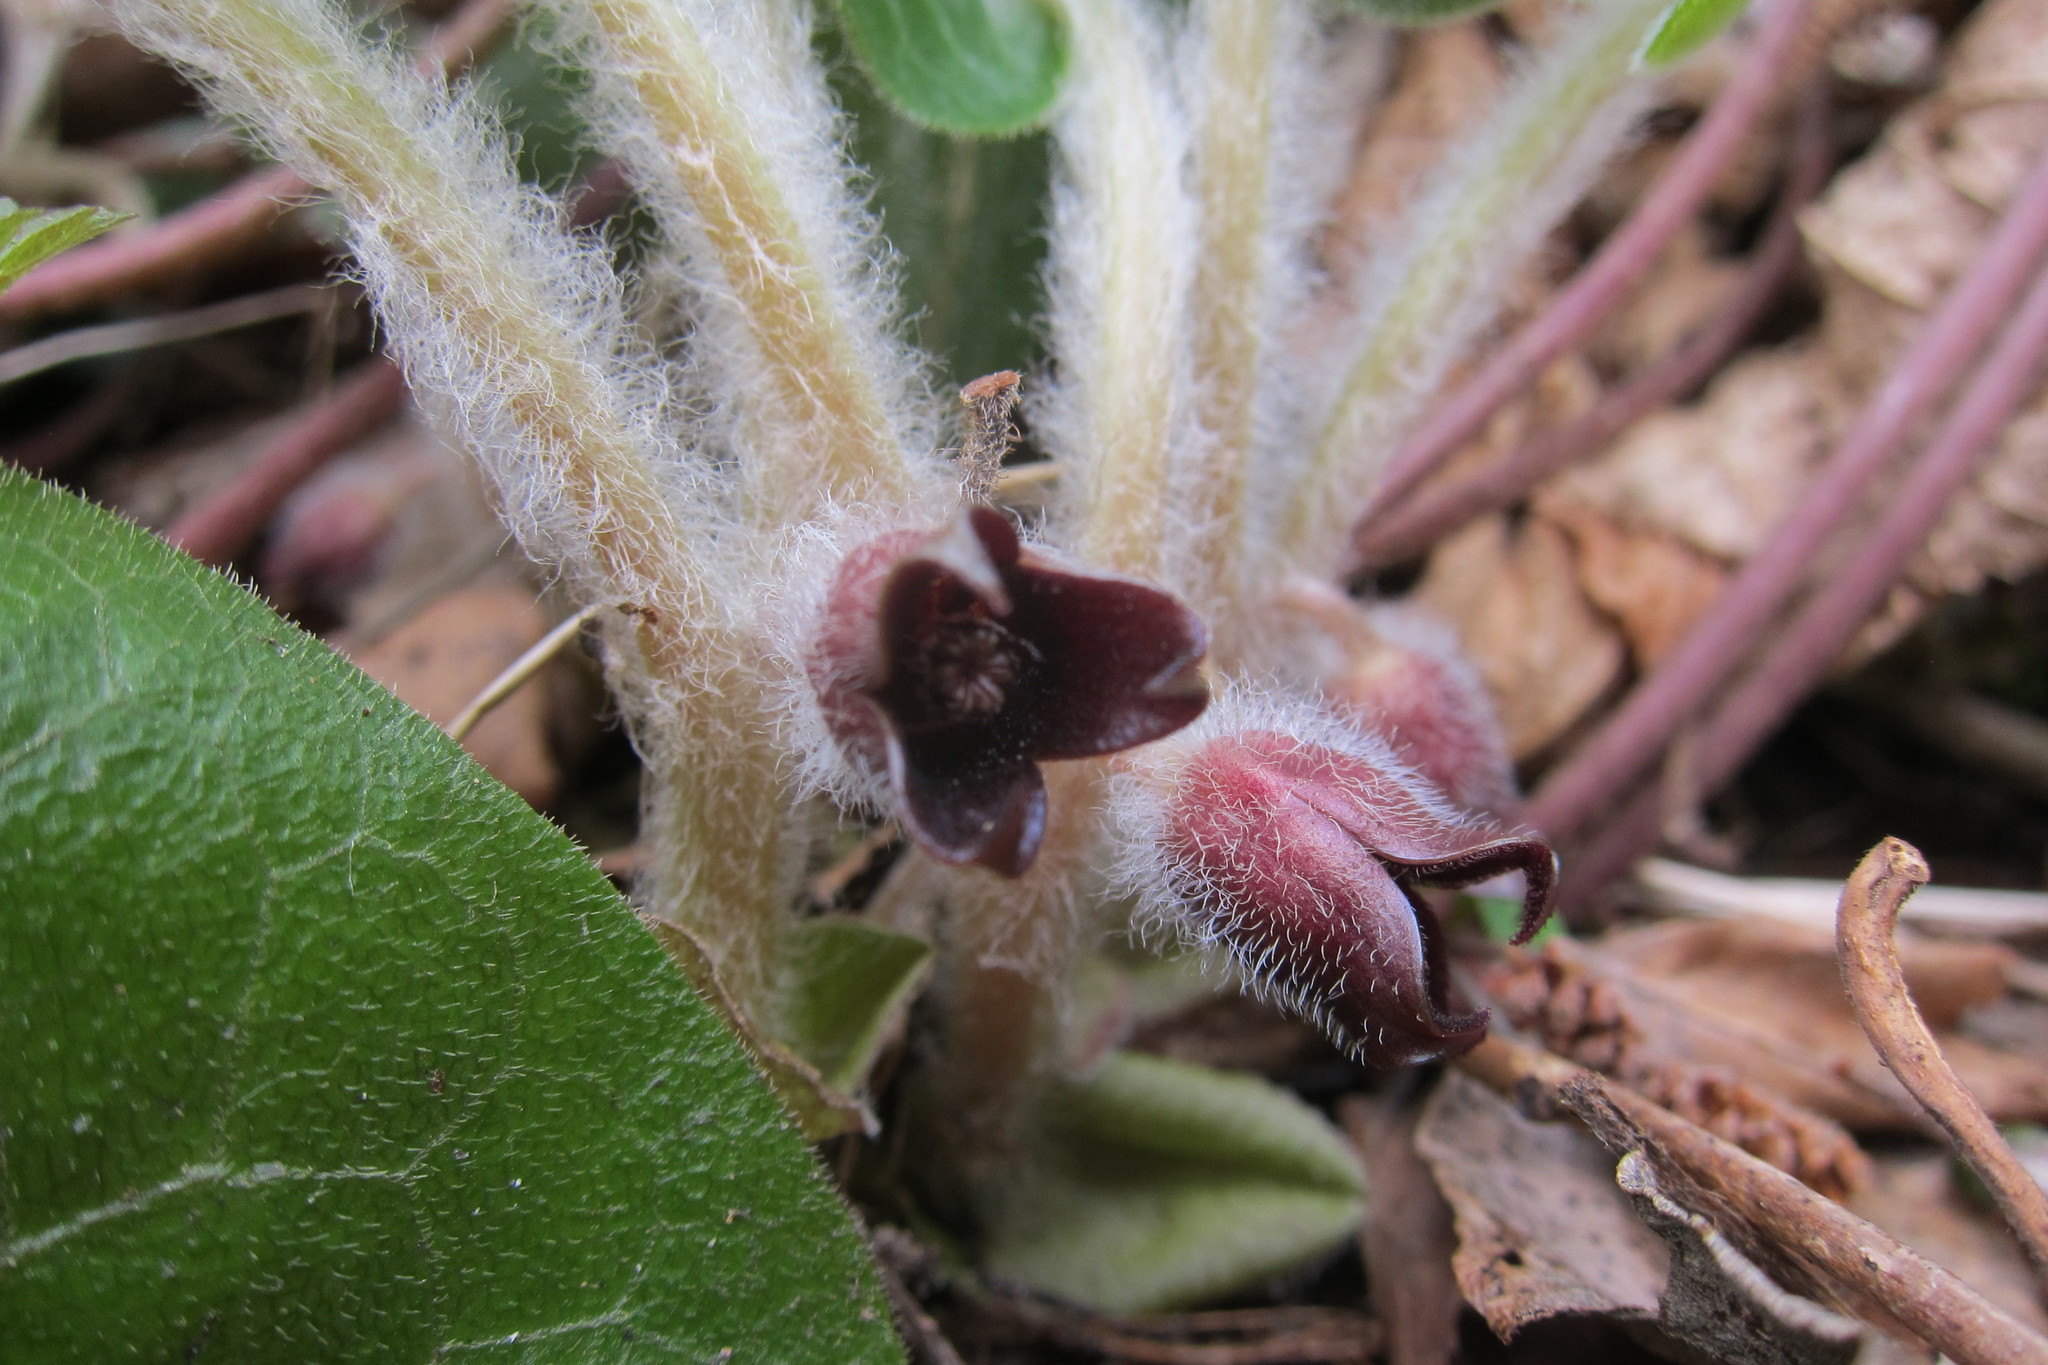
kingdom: Plantae
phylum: Tracheophyta
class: Magnoliopsida
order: Piperales
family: Aristolochiaceae
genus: Asarum
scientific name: Asarum europaeum
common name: Asarabacca
